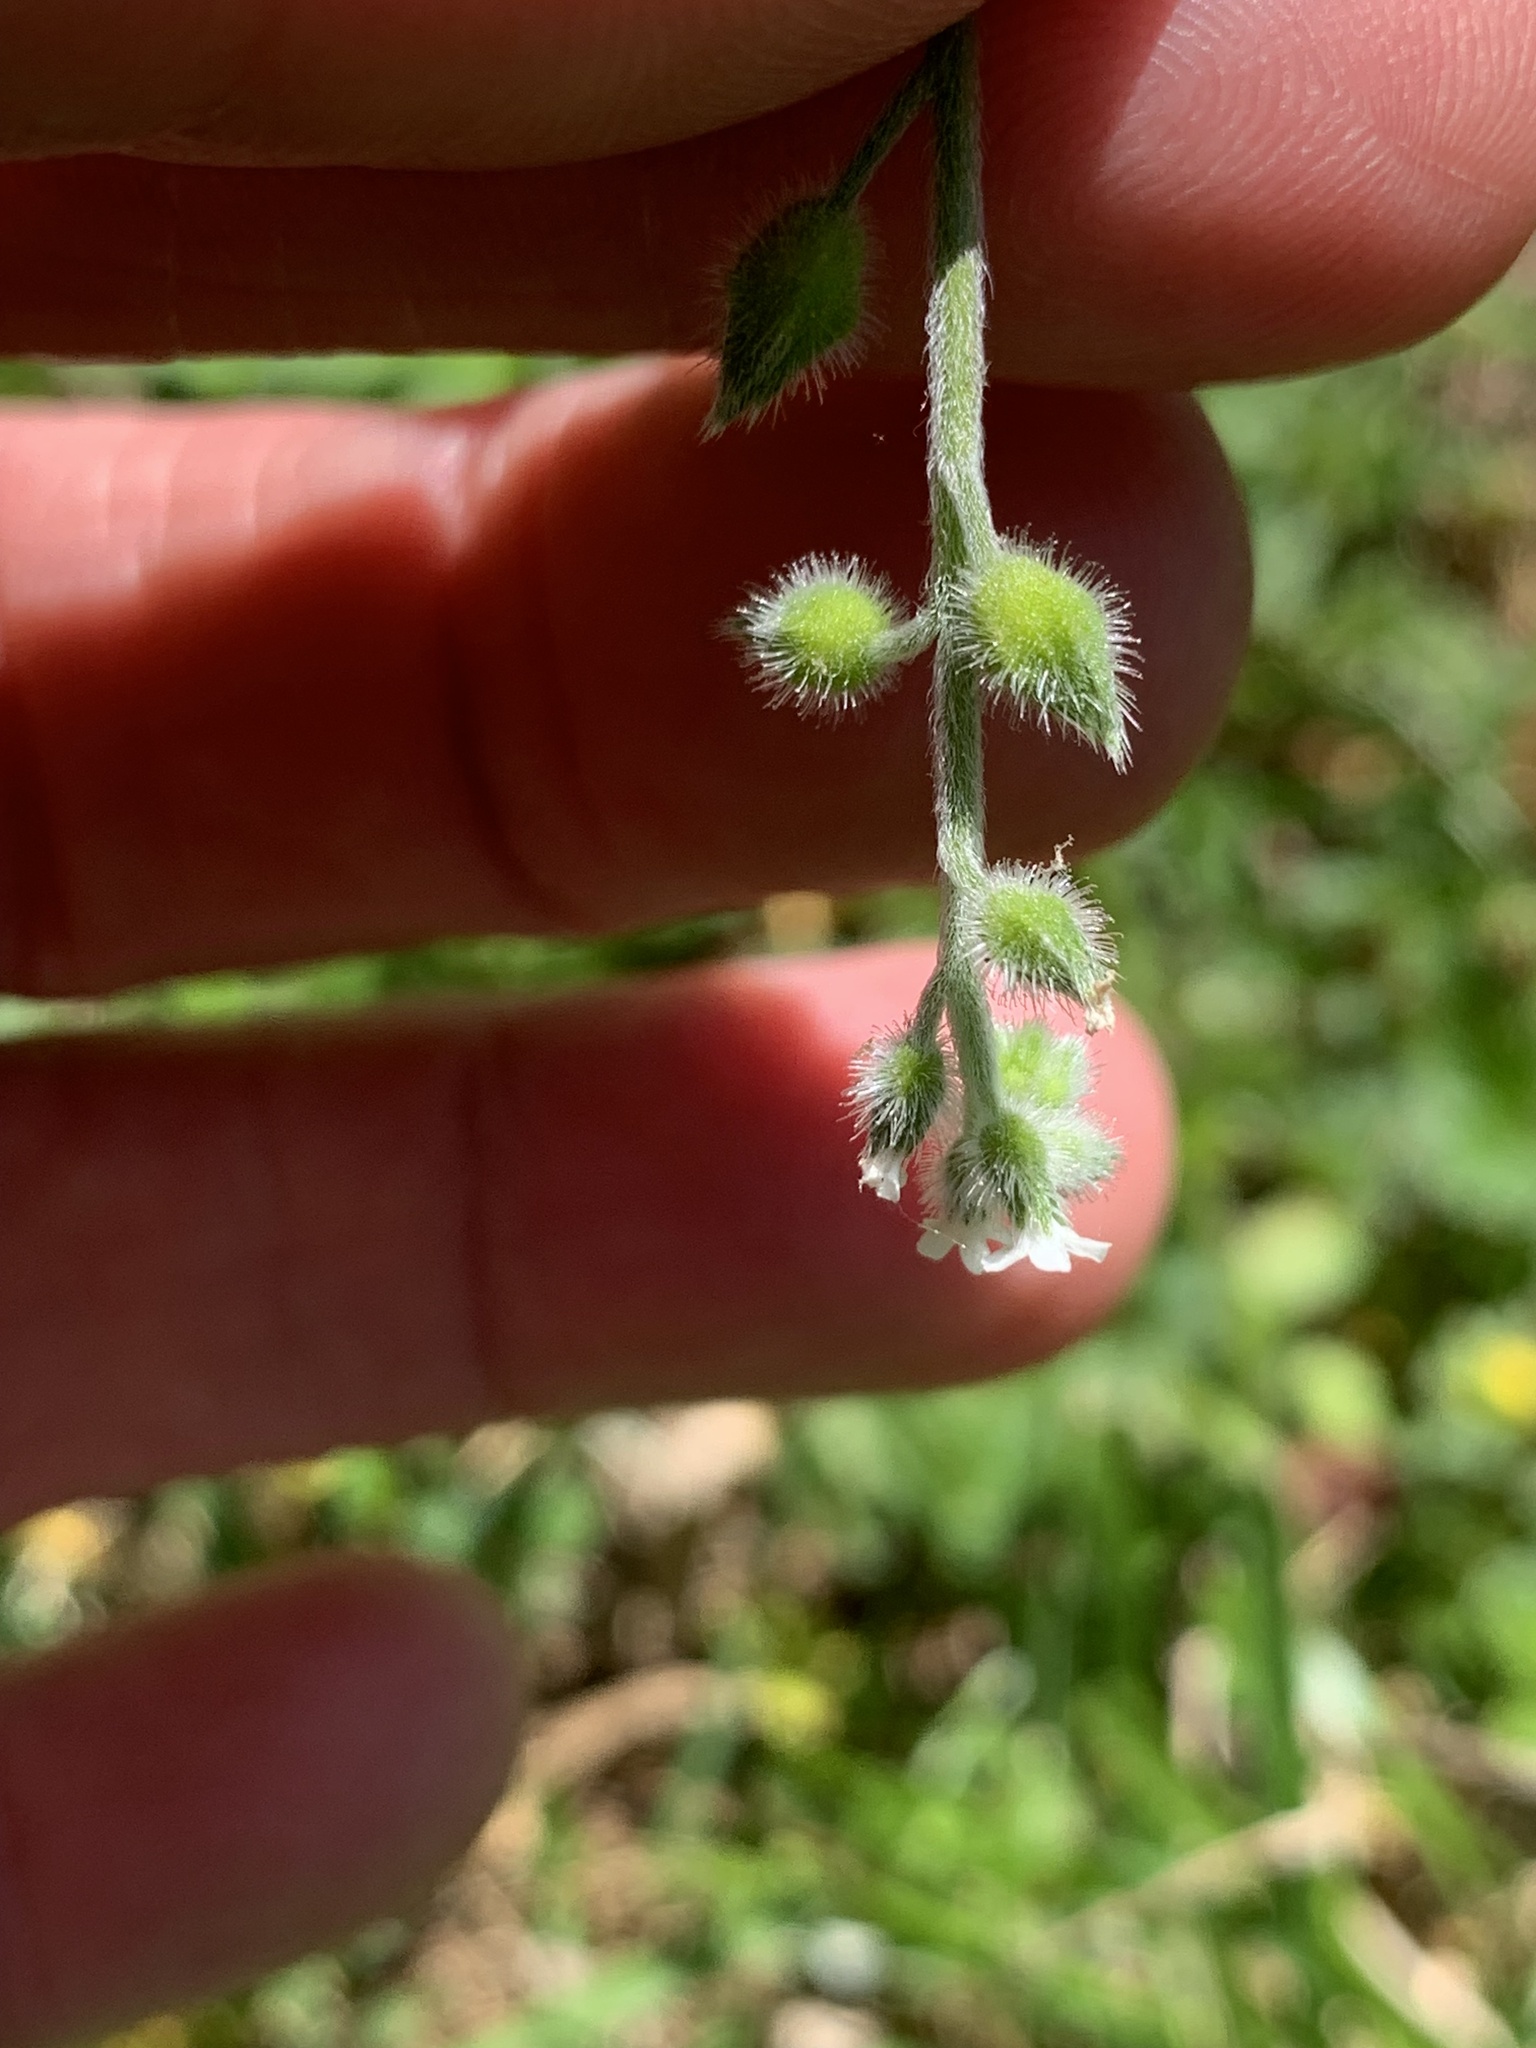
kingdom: Plantae
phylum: Tracheophyta
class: Magnoliopsida
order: Boraginales
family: Boraginaceae
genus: Myosotis
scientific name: Myosotis macrosperma
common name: Large-seed forget-me-not
